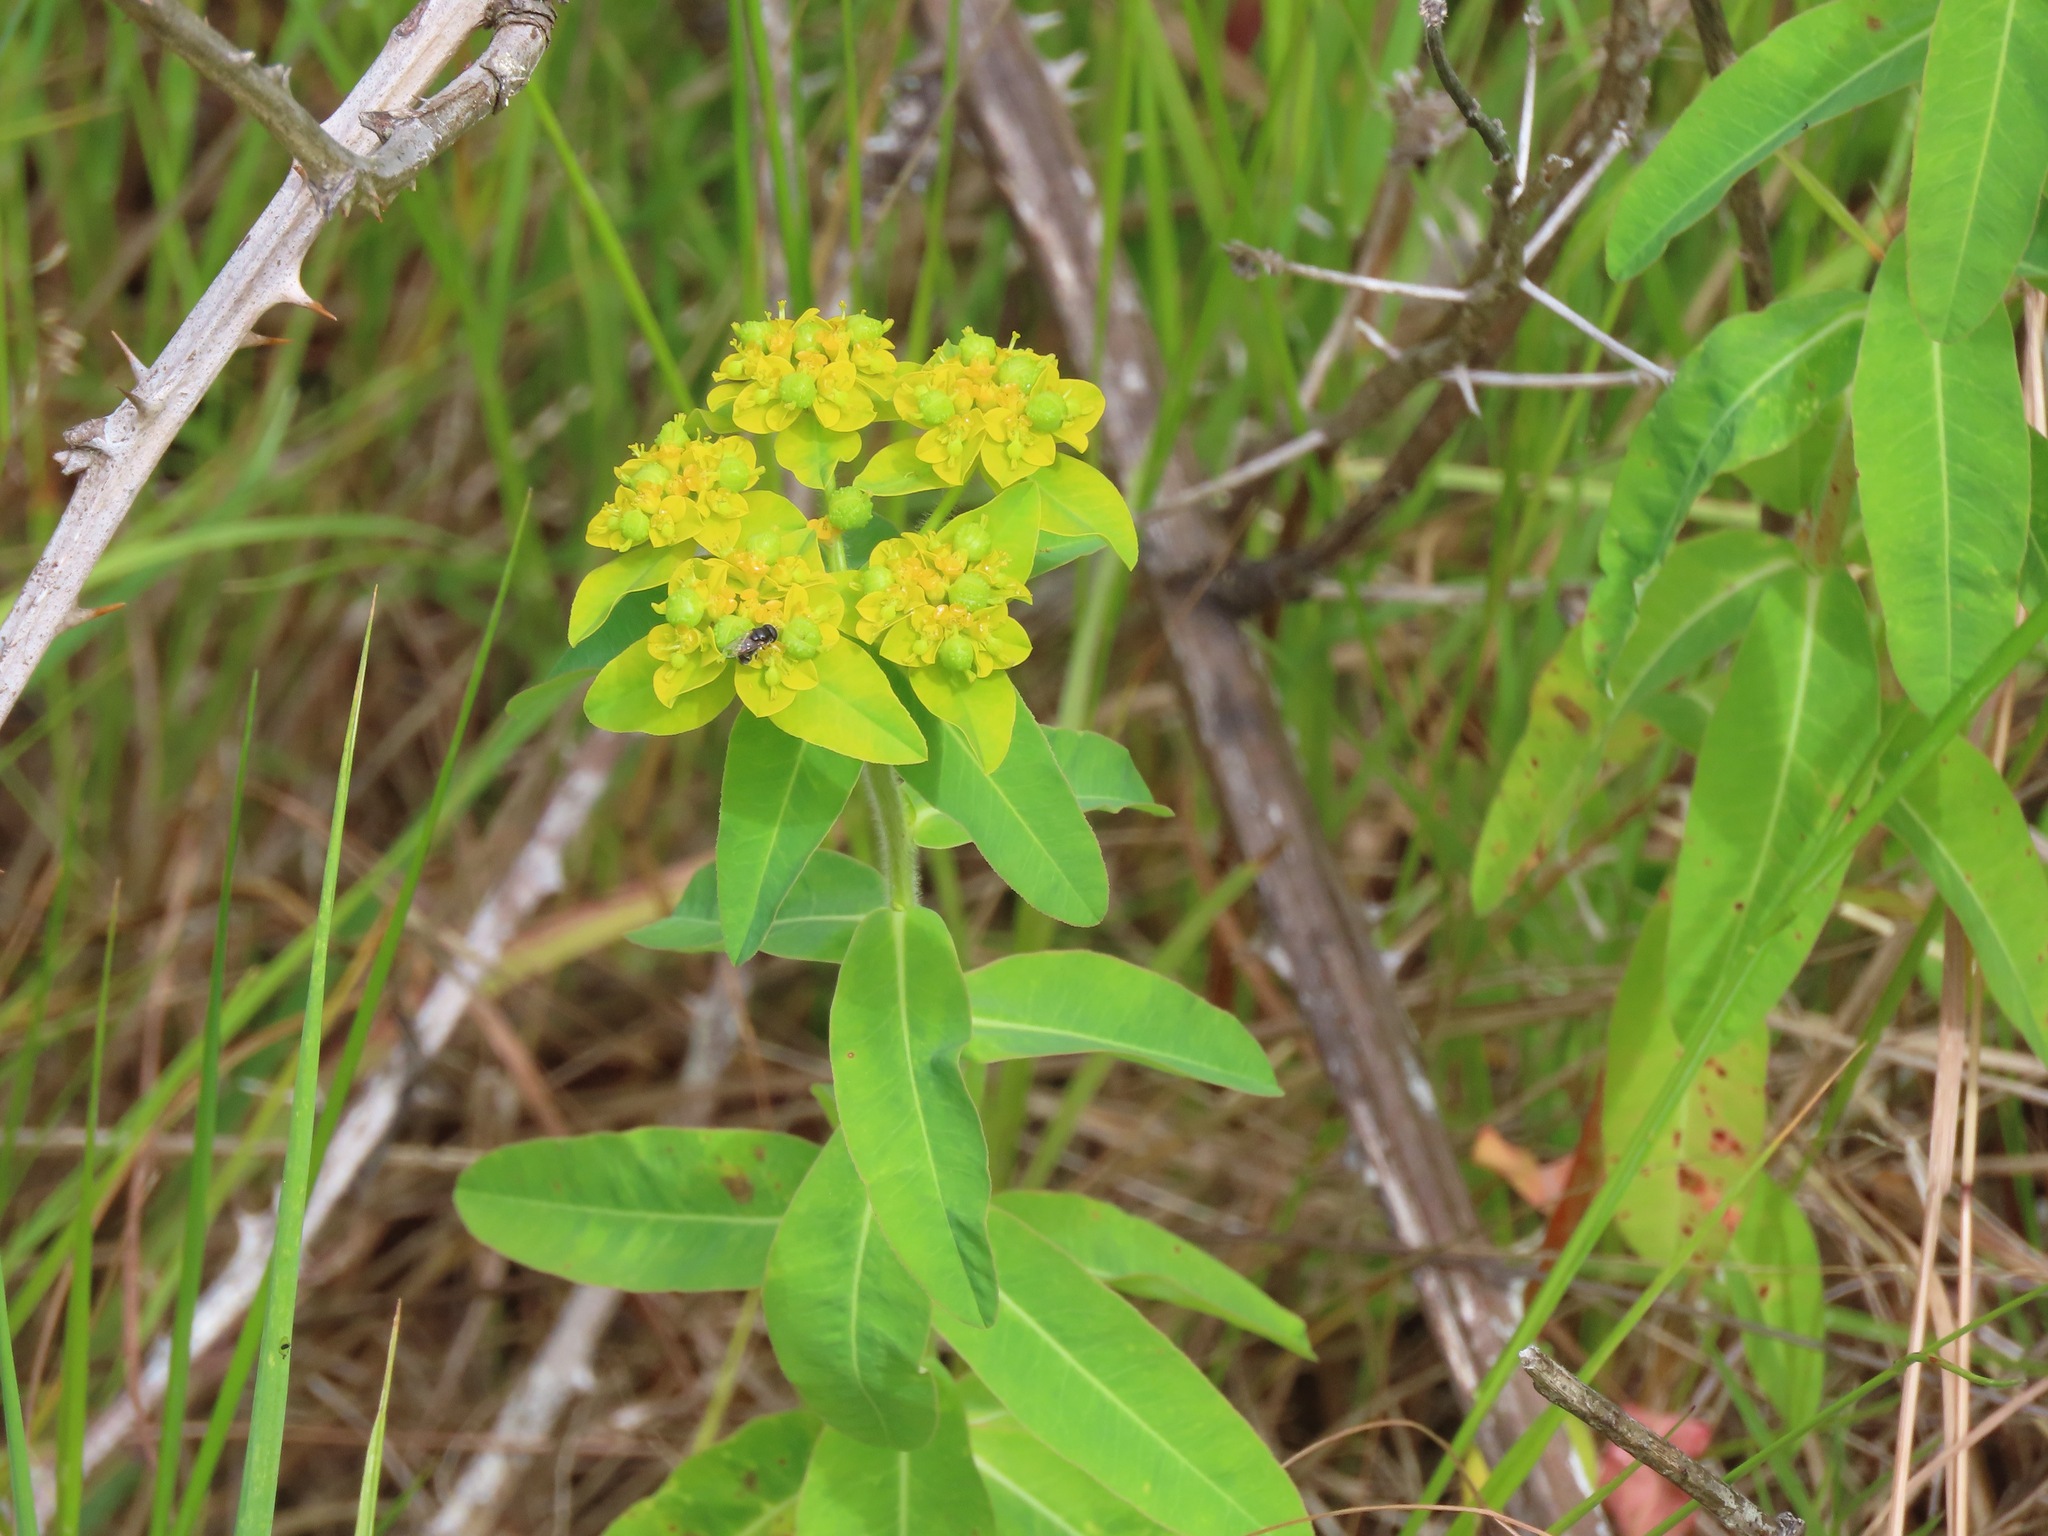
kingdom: Plantae
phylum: Tracheophyta
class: Magnoliopsida
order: Malpighiales
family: Euphorbiaceae
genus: Euphorbia
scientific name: Euphorbia oblongata
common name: Balkan spurge
